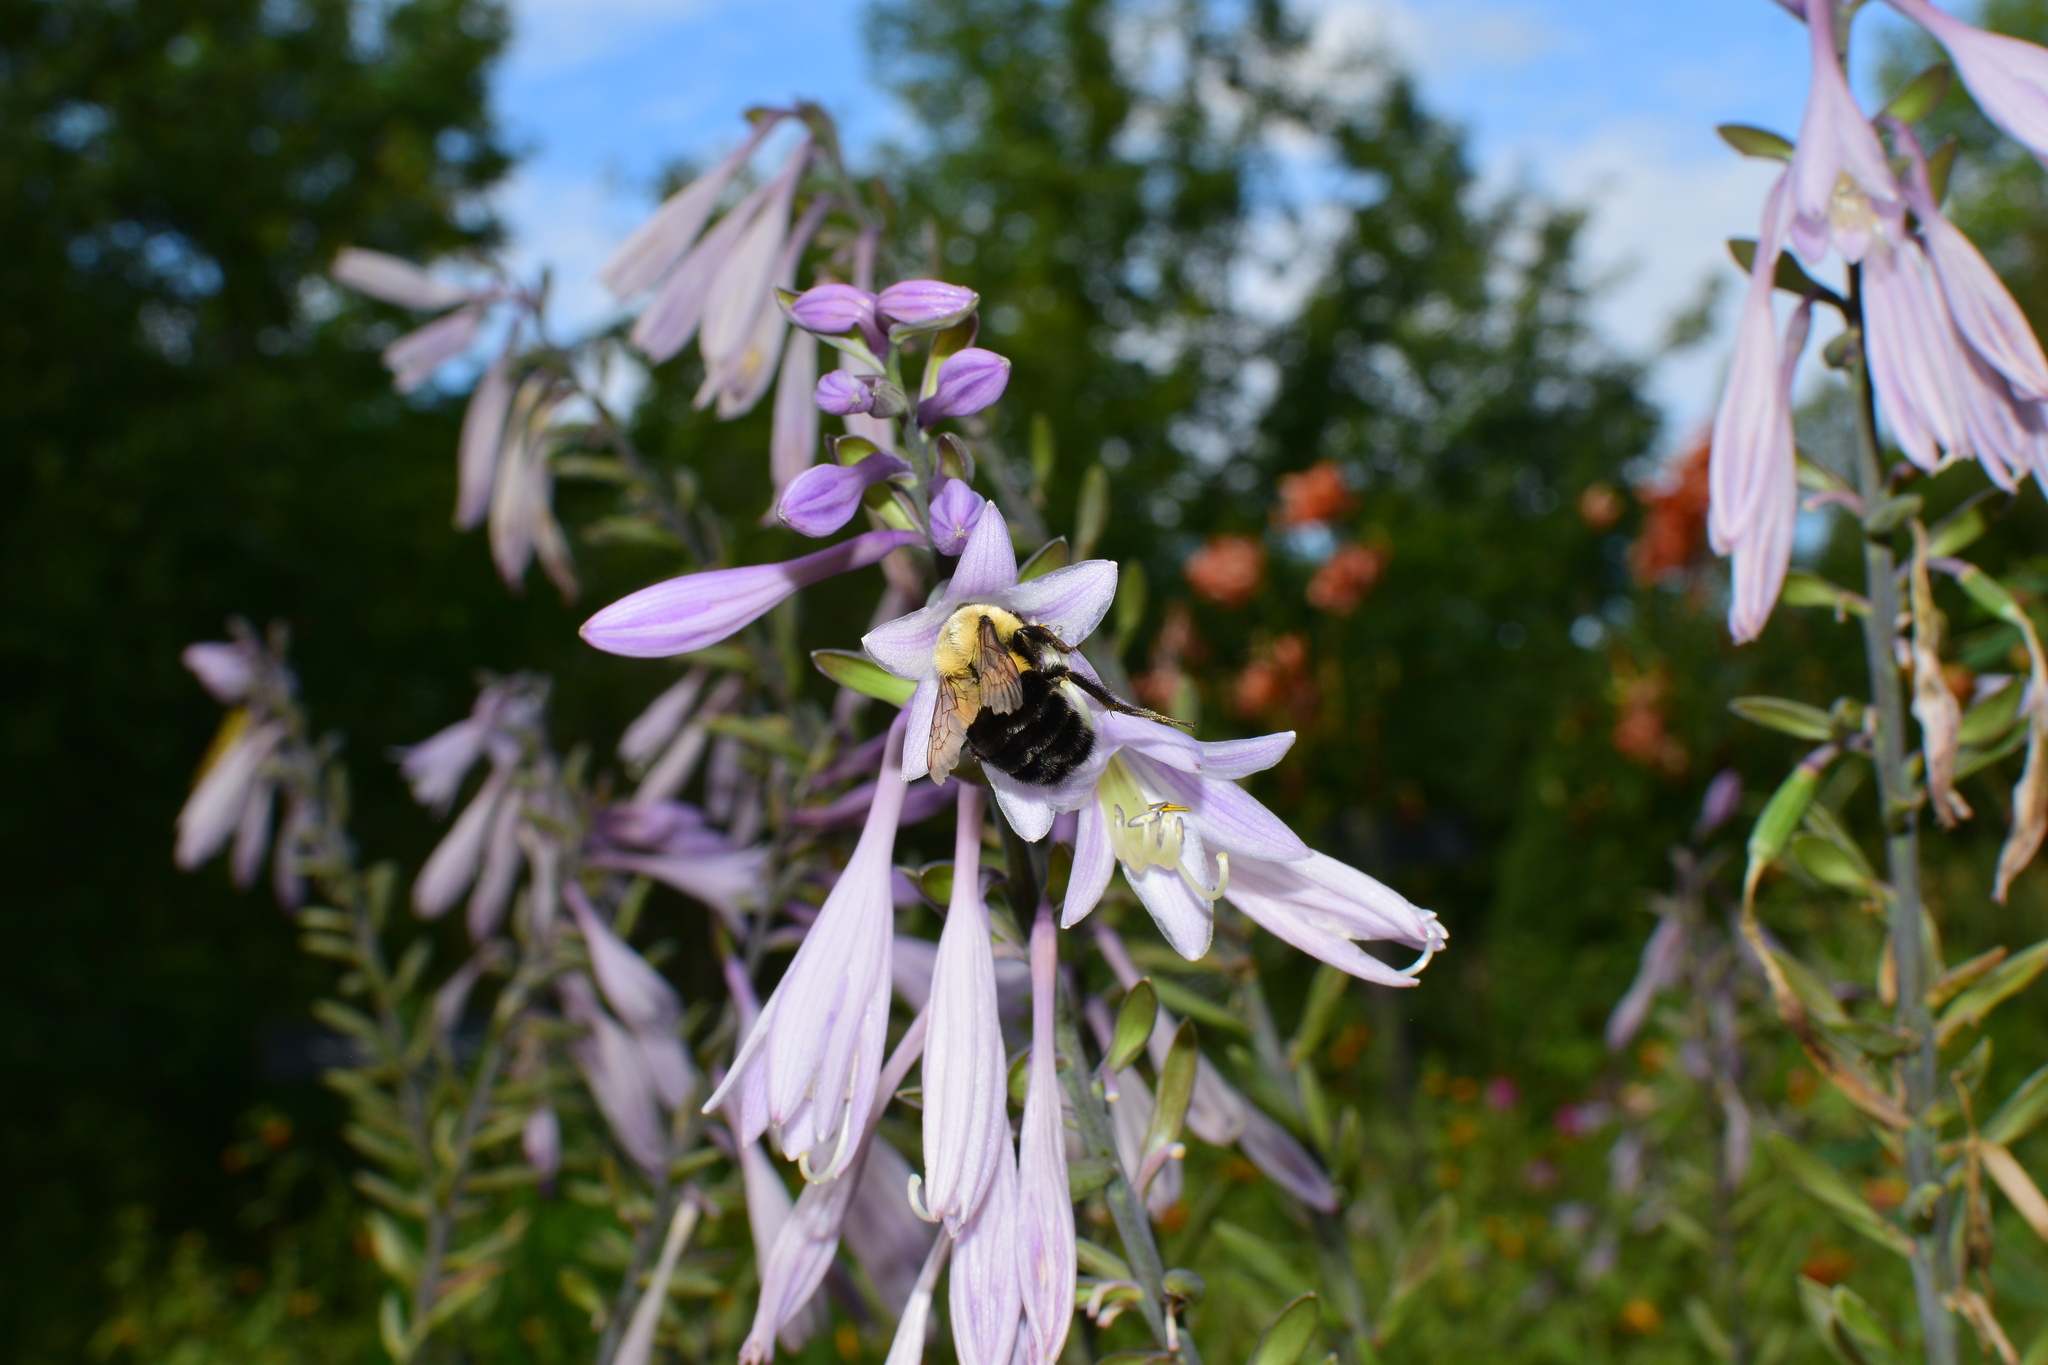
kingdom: Animalia
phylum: Arthropoda
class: Insecta
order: Hymenoptera
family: Apidae
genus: Bombus
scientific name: Bombus impatiens
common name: Common eastern bumble bee
